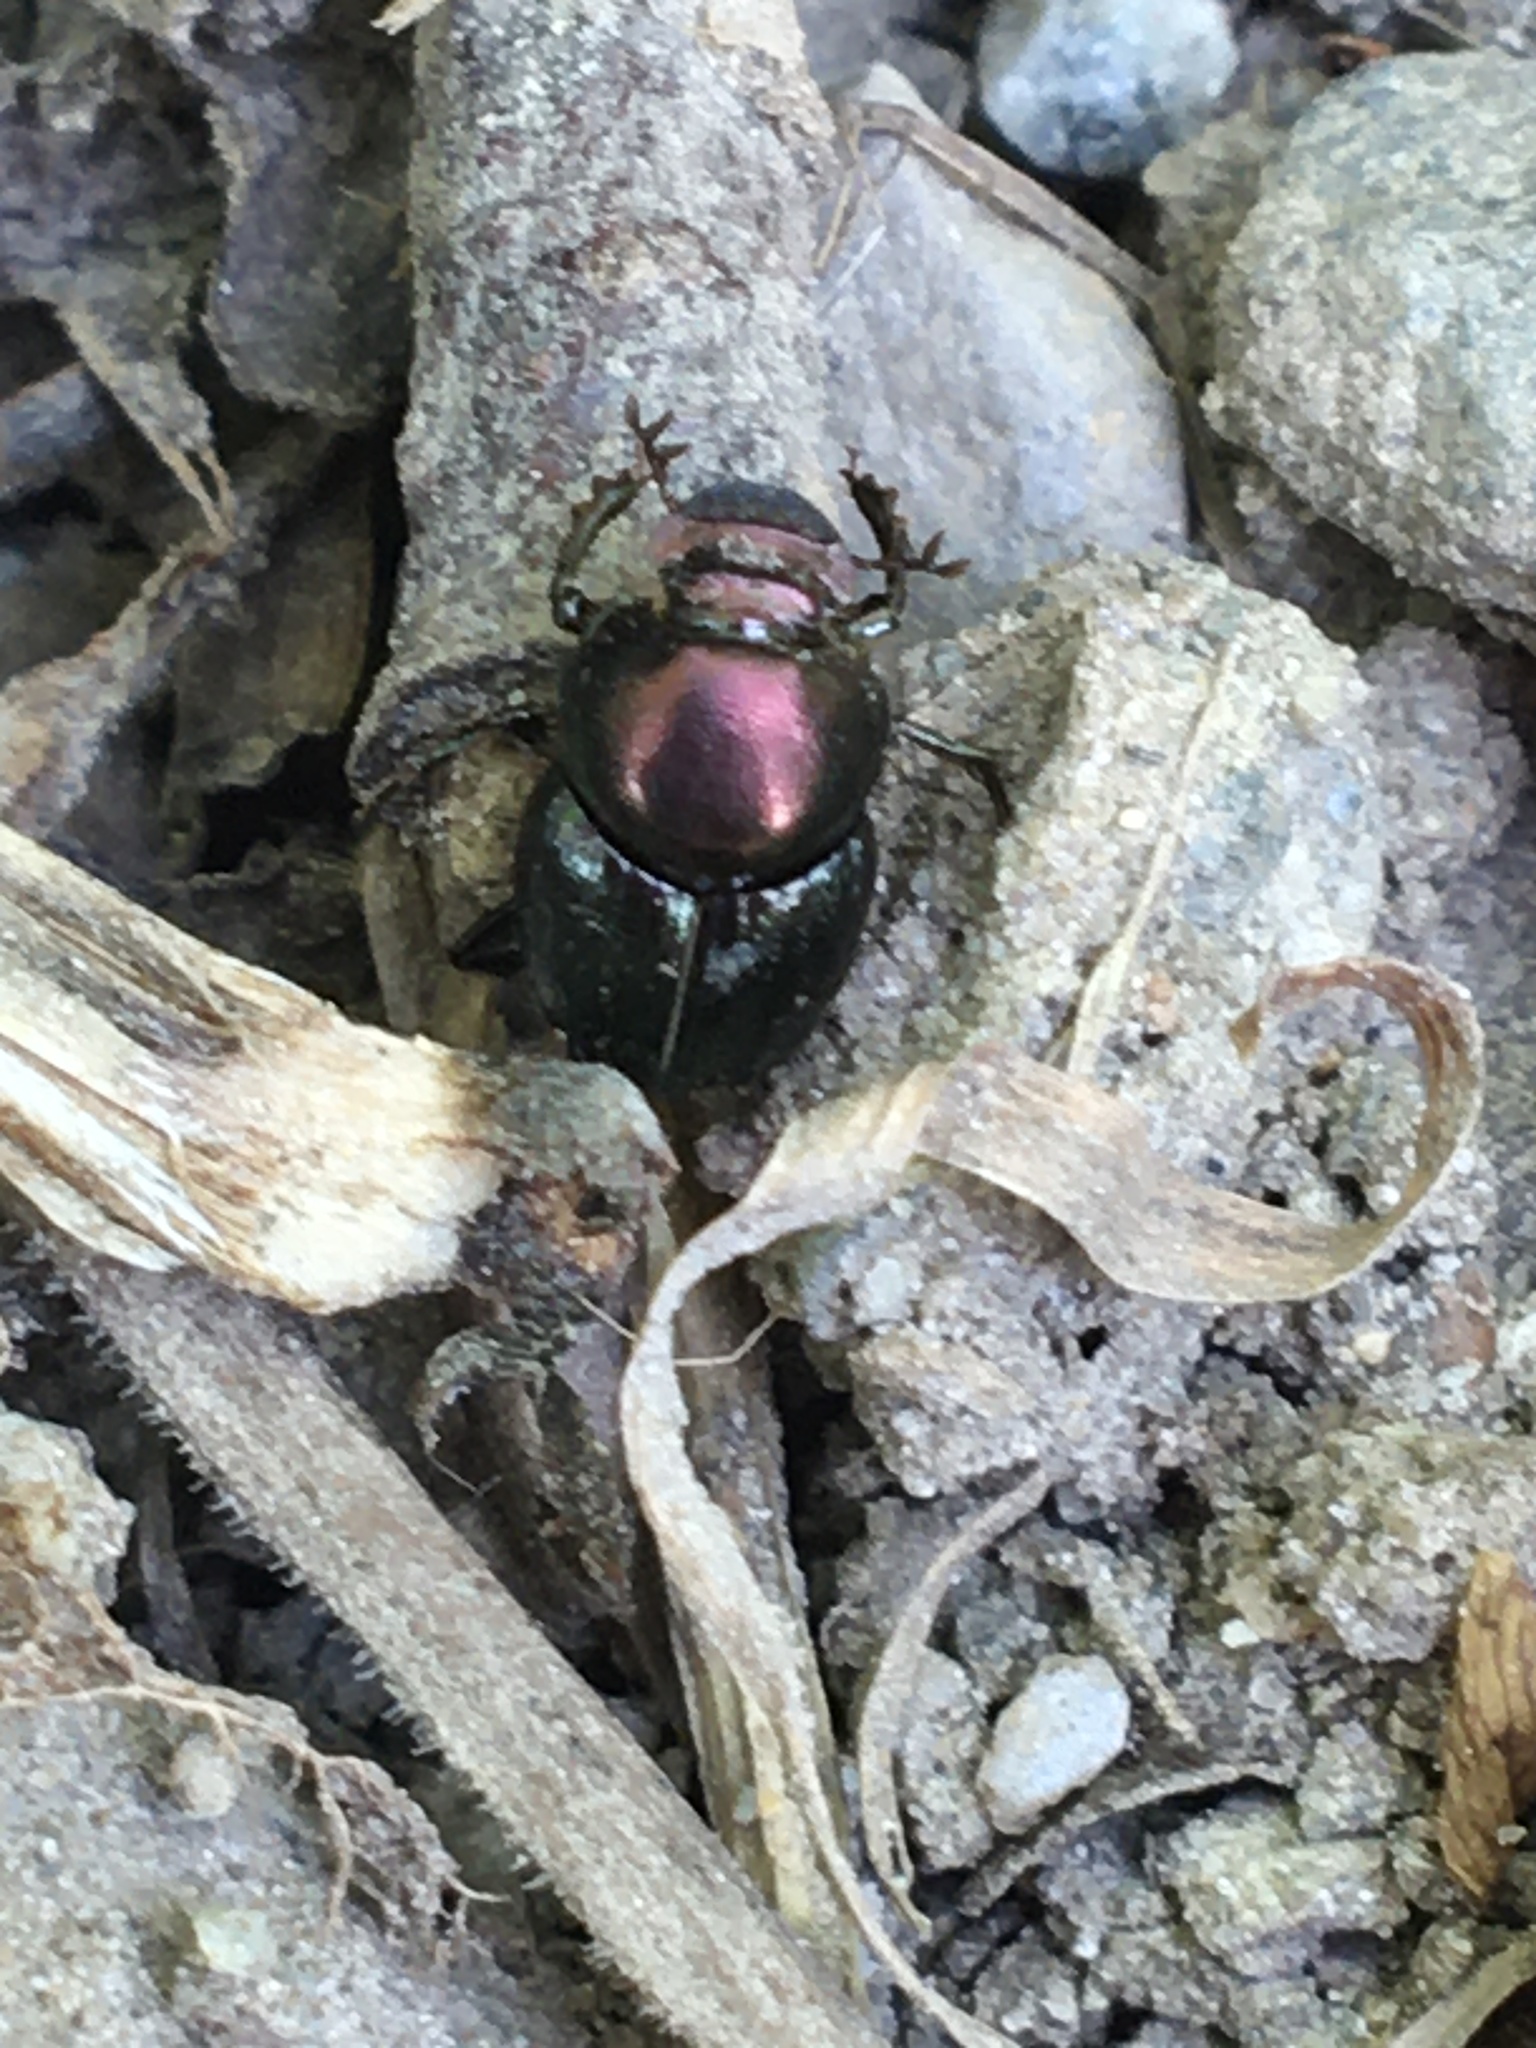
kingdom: Animalia
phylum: Arthropoda
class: Insecta
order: Coleoptera
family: Scarabaeidae
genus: Onthophagus
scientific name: Onthophagus orpheus
